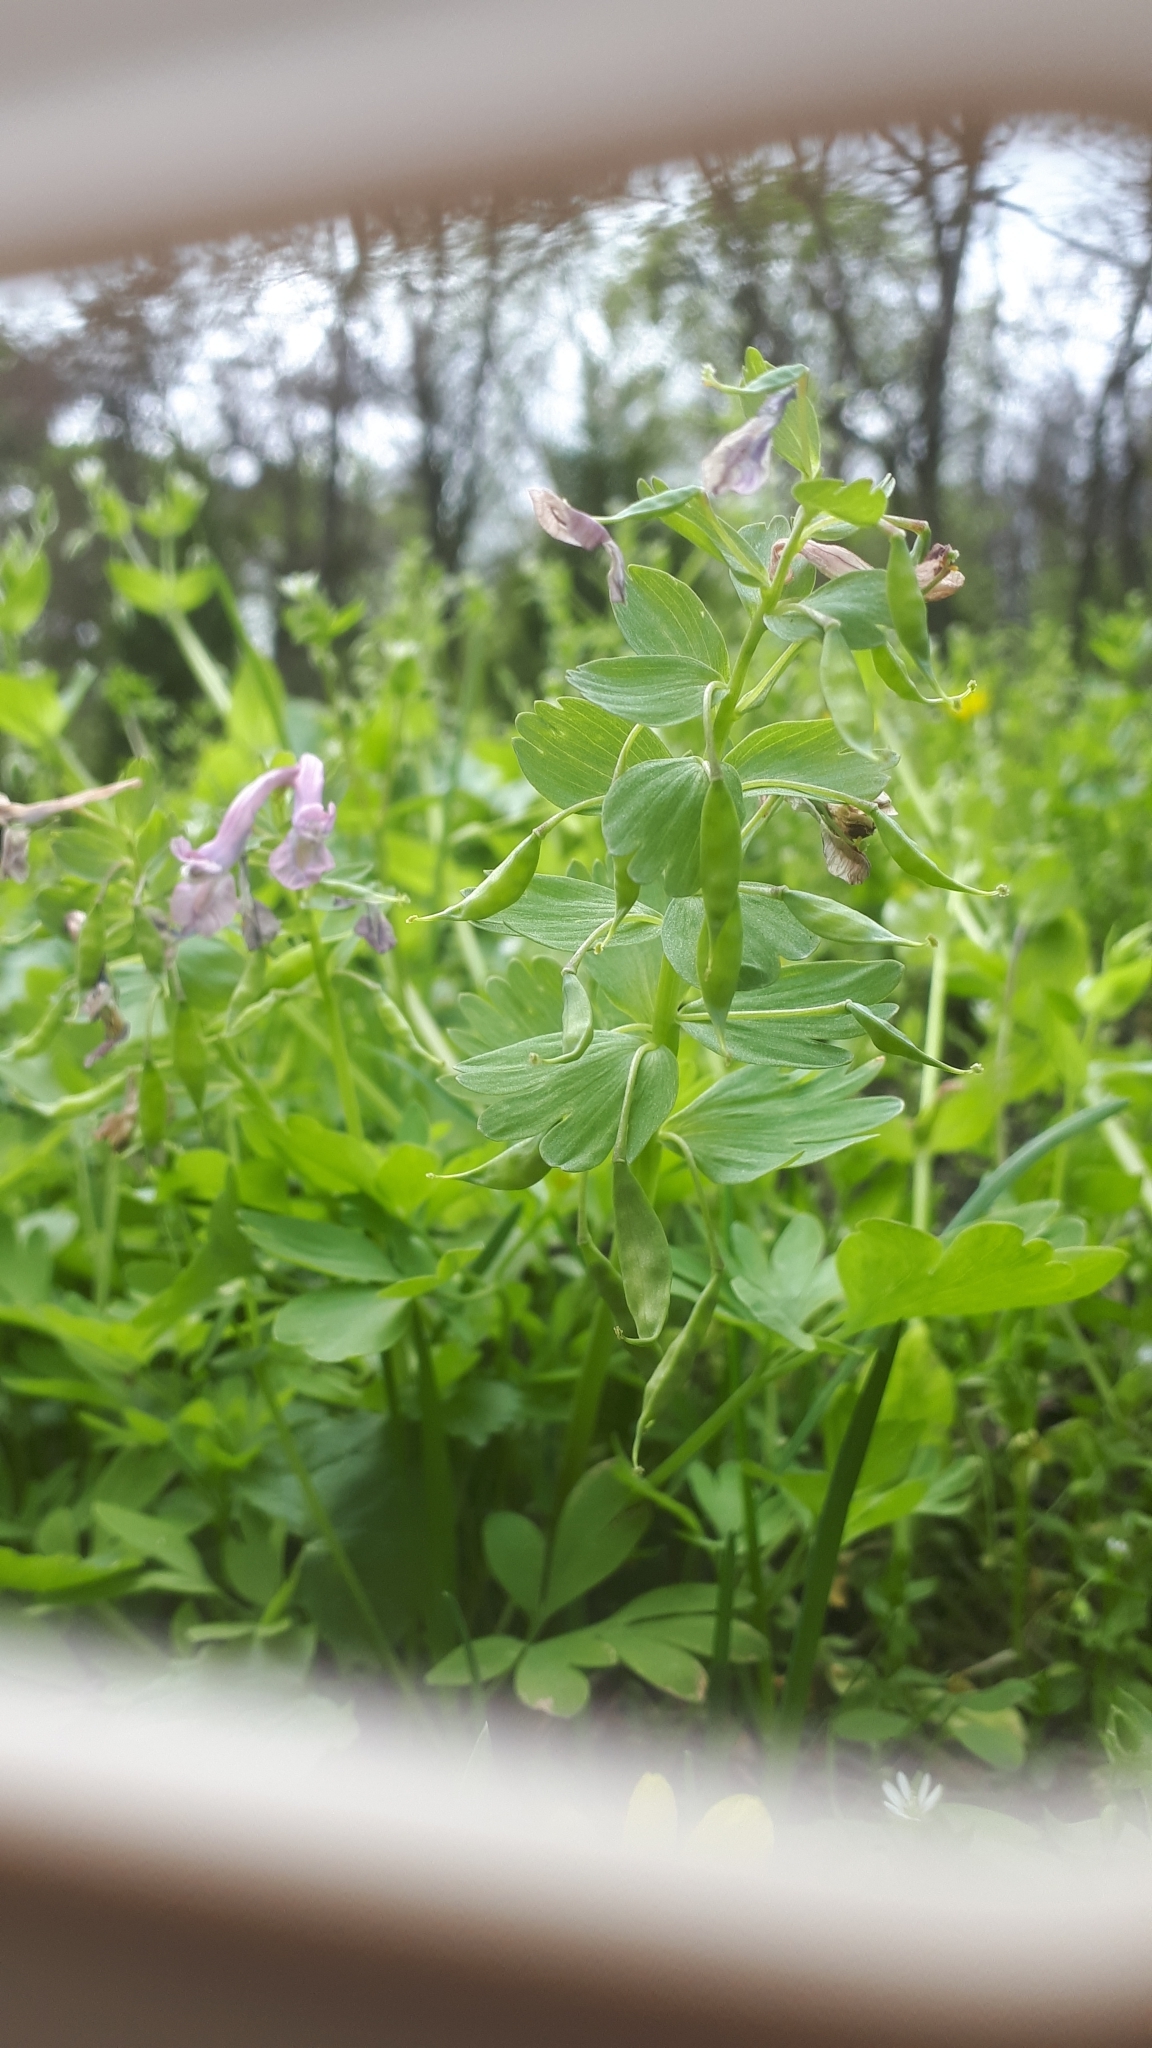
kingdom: Plantae
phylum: Tracheophyta
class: Magnoliopsida
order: Ranunculales
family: Papaveraceae
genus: Corydalis
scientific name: Corydalis solida
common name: Bird-in-a-bush
